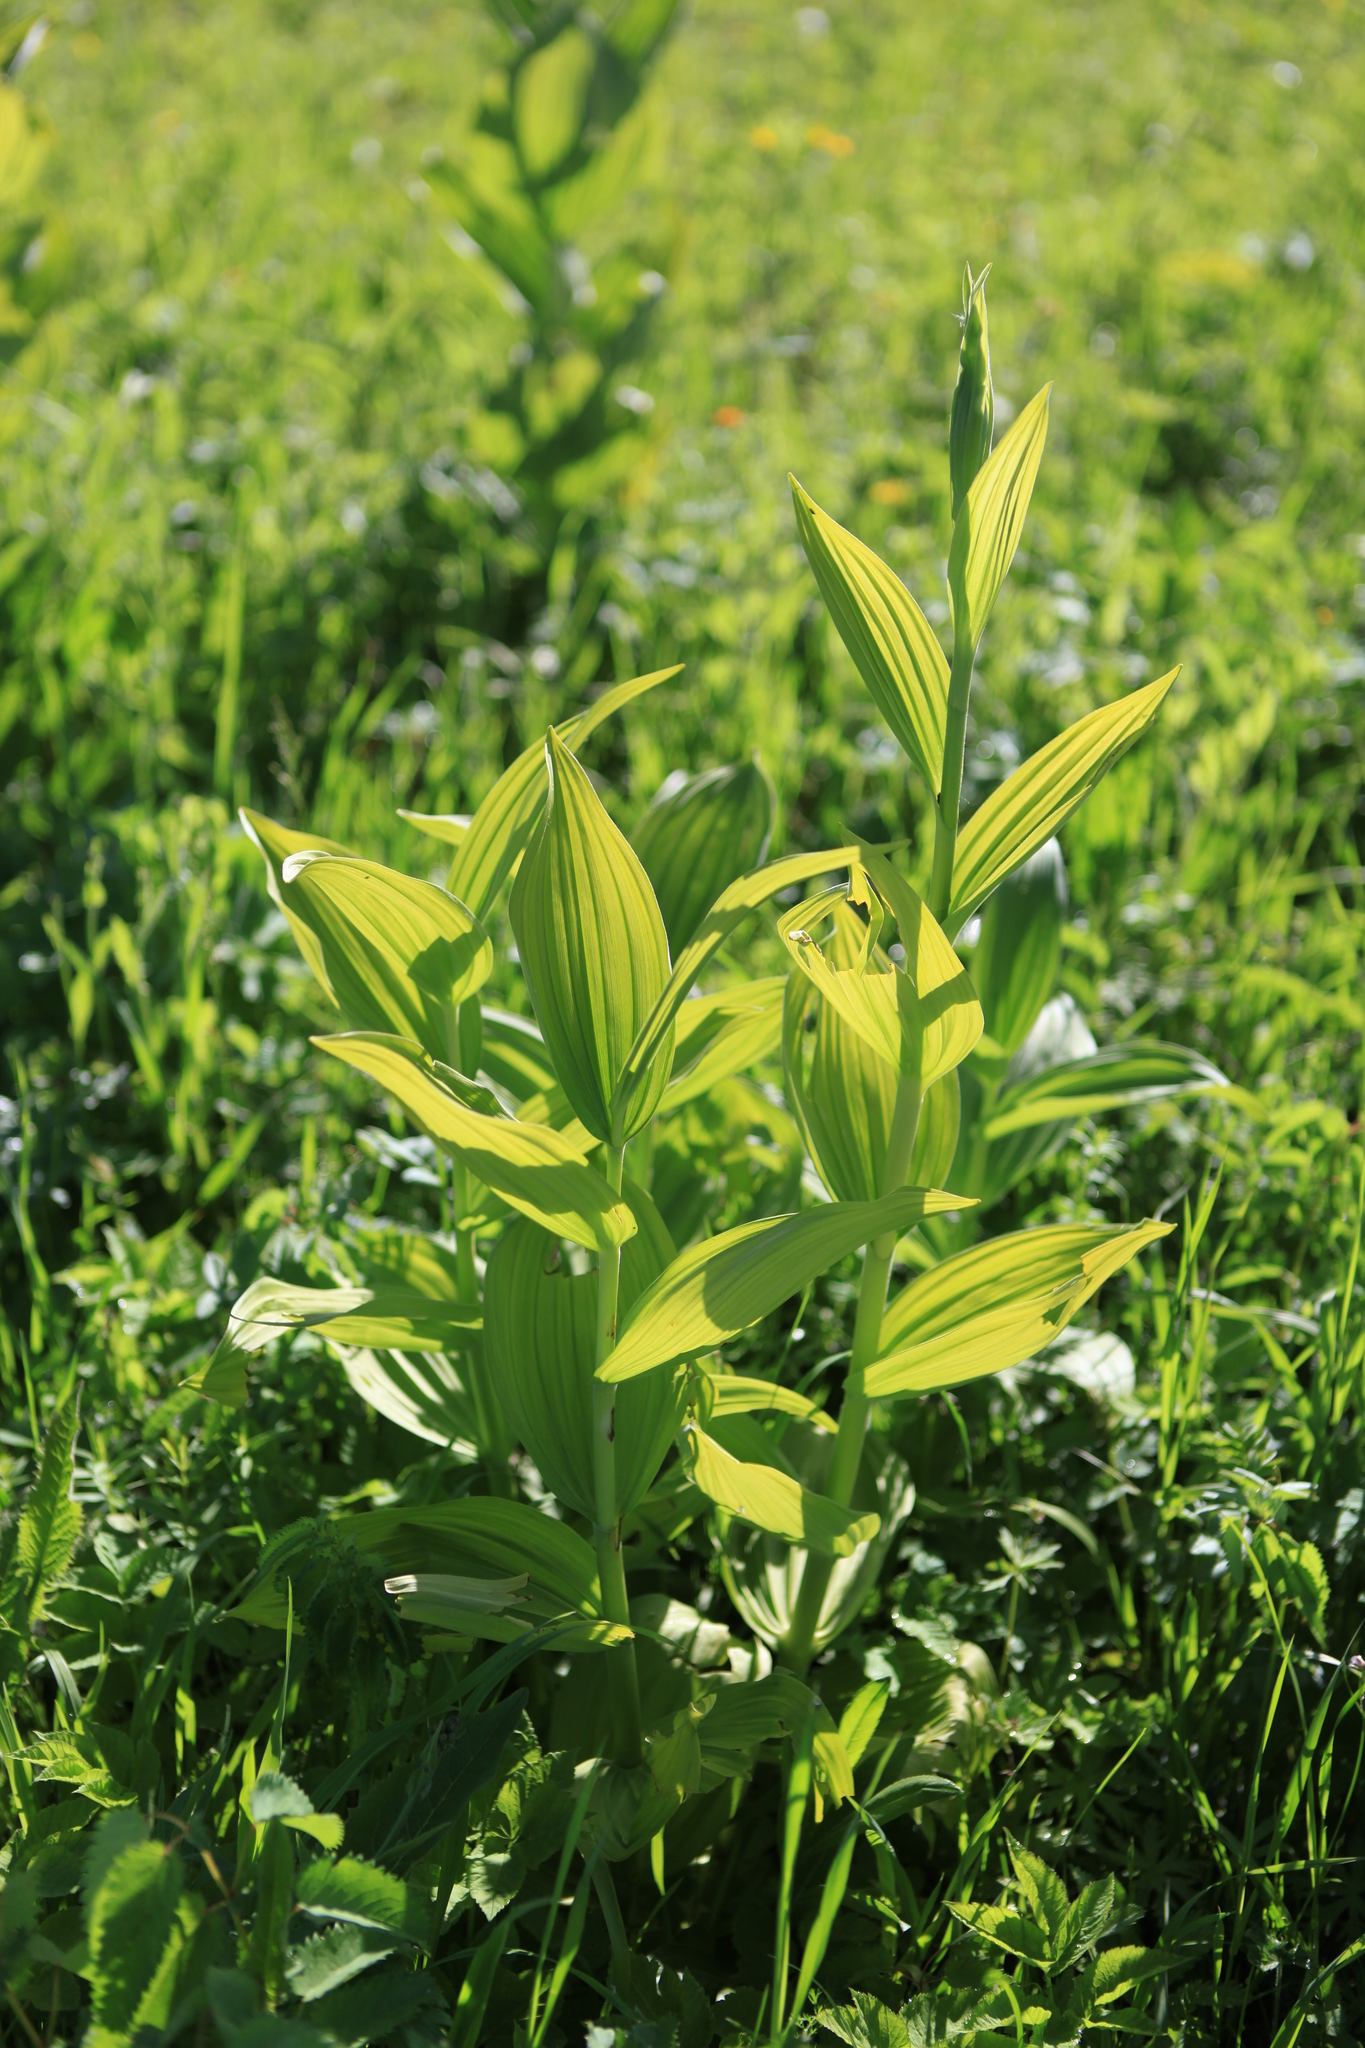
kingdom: Plantae
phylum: Tracheophyta
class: Liliopsida
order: Liliales
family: Melanthiaceae
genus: Veratrum
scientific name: Veratrum lobelianum
